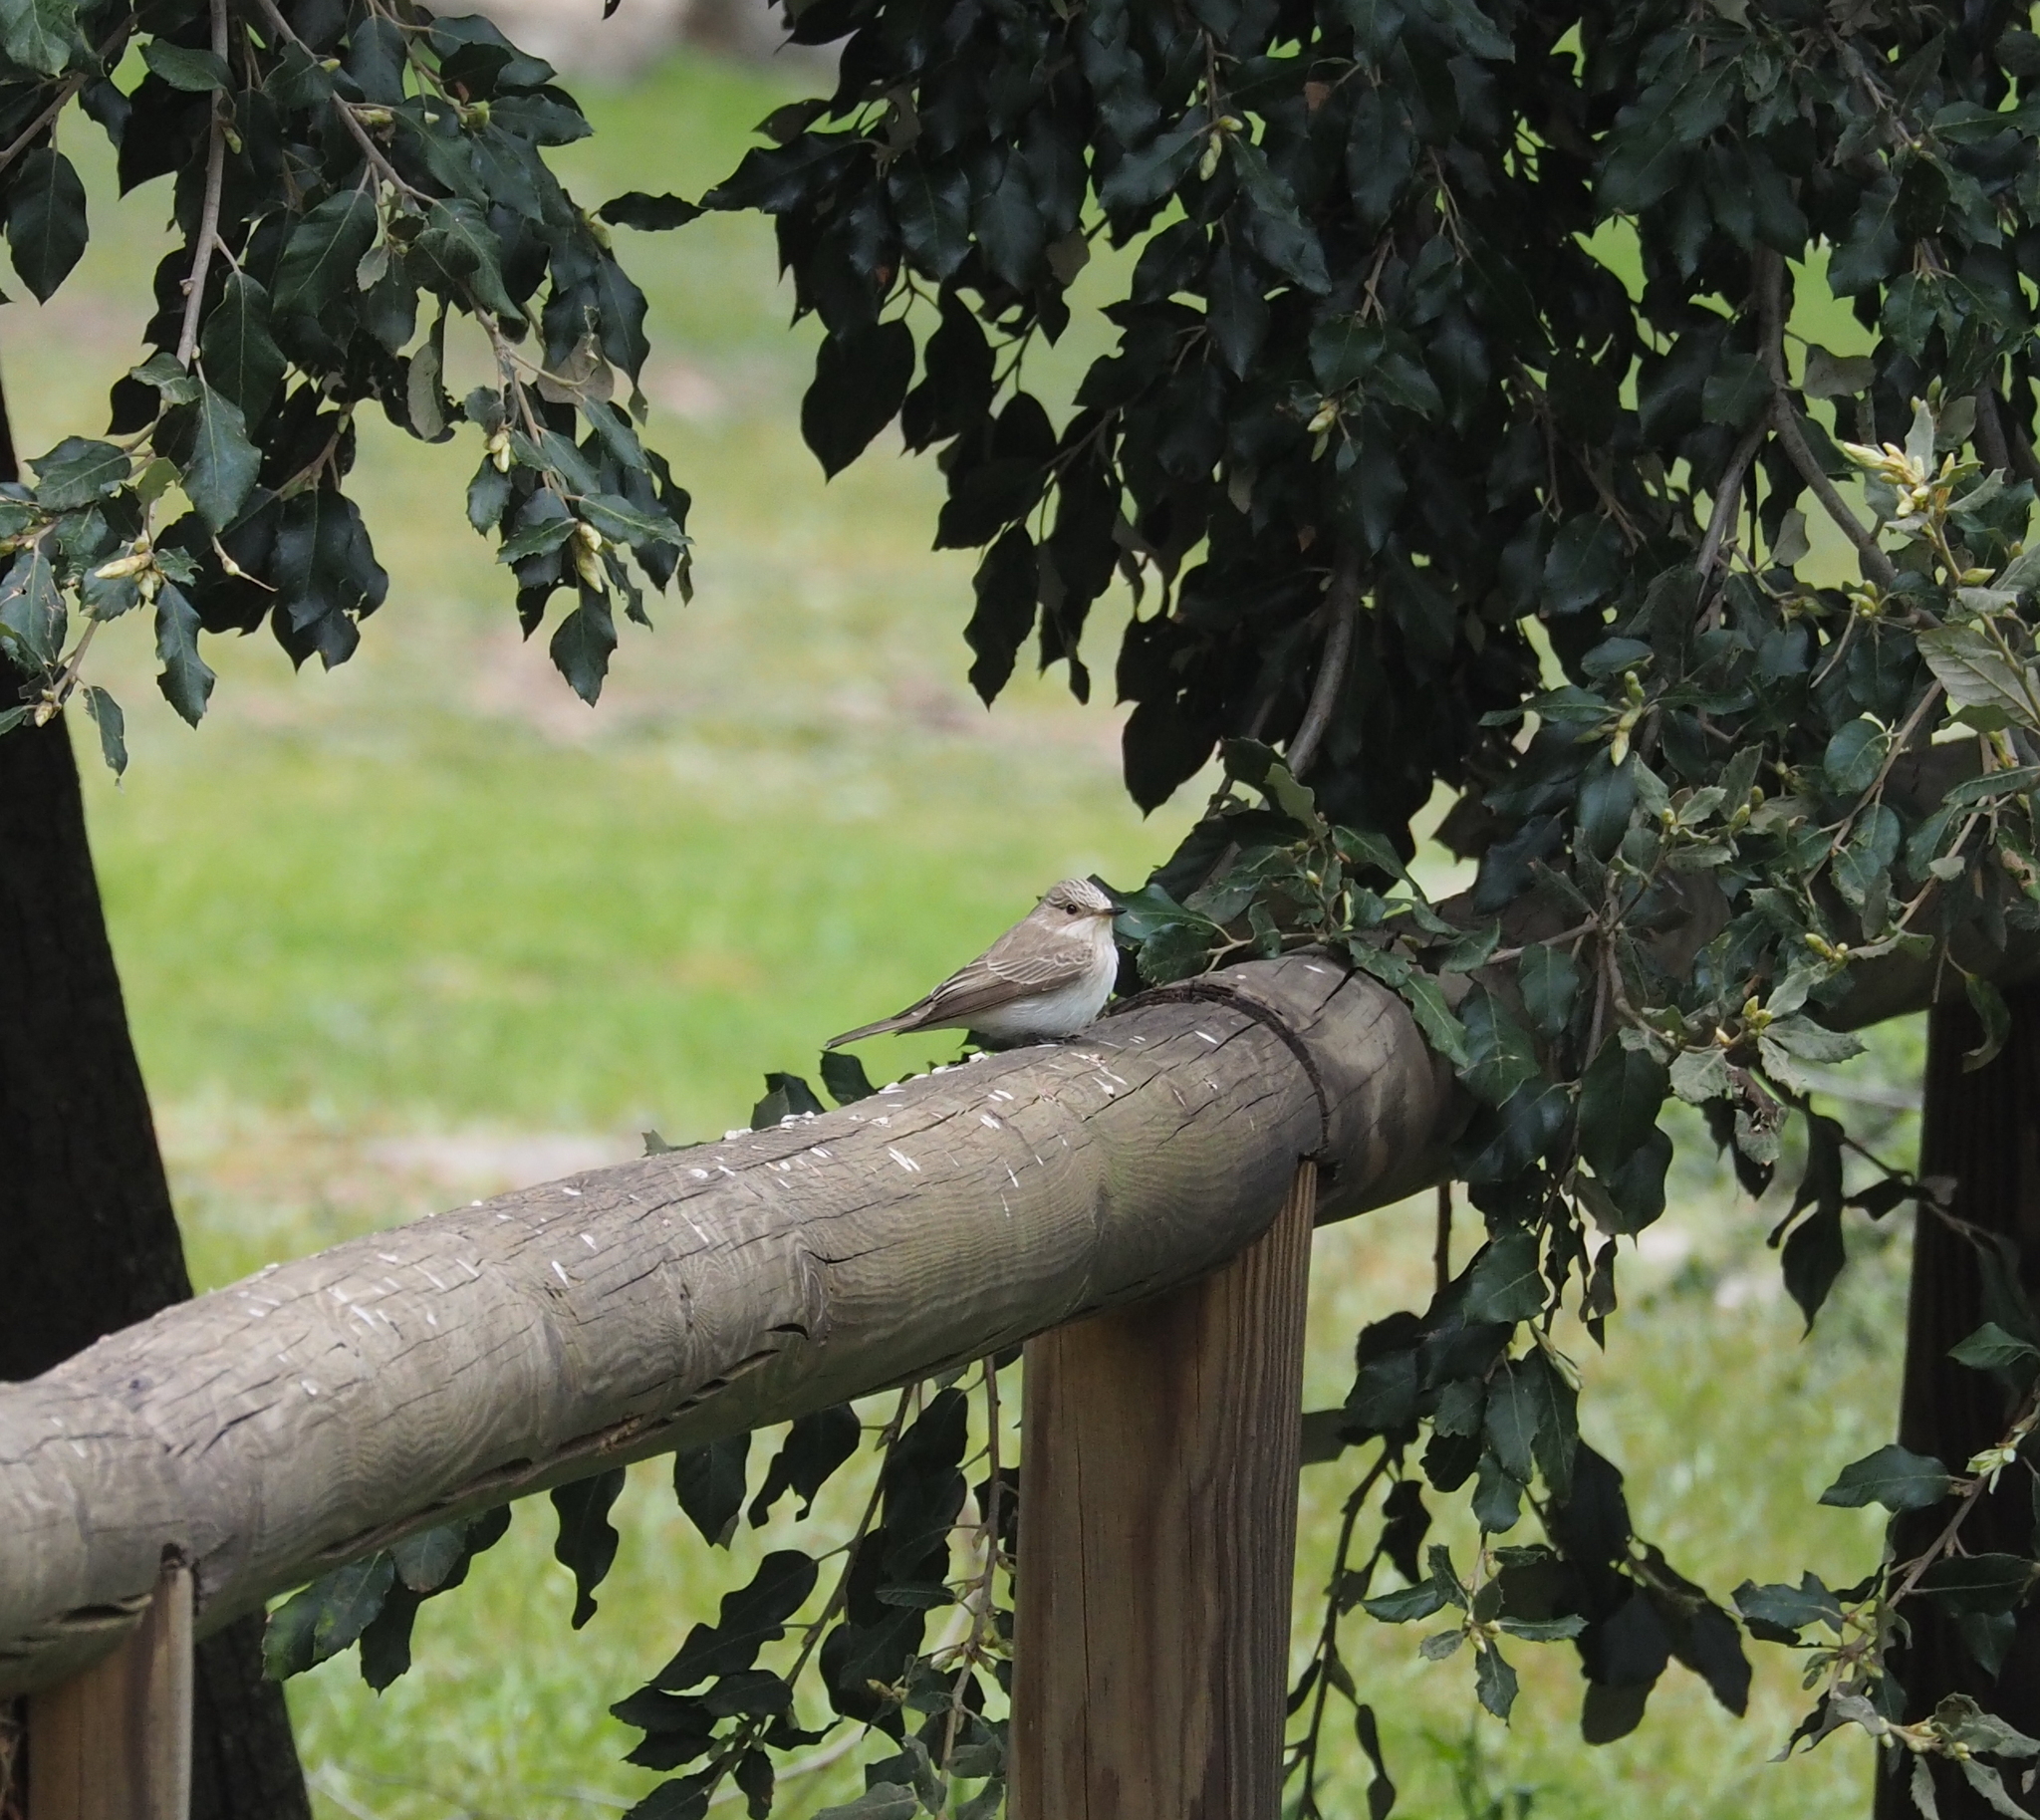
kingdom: Animalia
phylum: Chordata
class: Aves
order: Passeriformes
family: Muscicapidae
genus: Muscicapa
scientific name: Muscicapa striata
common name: Spotted flycatcher
